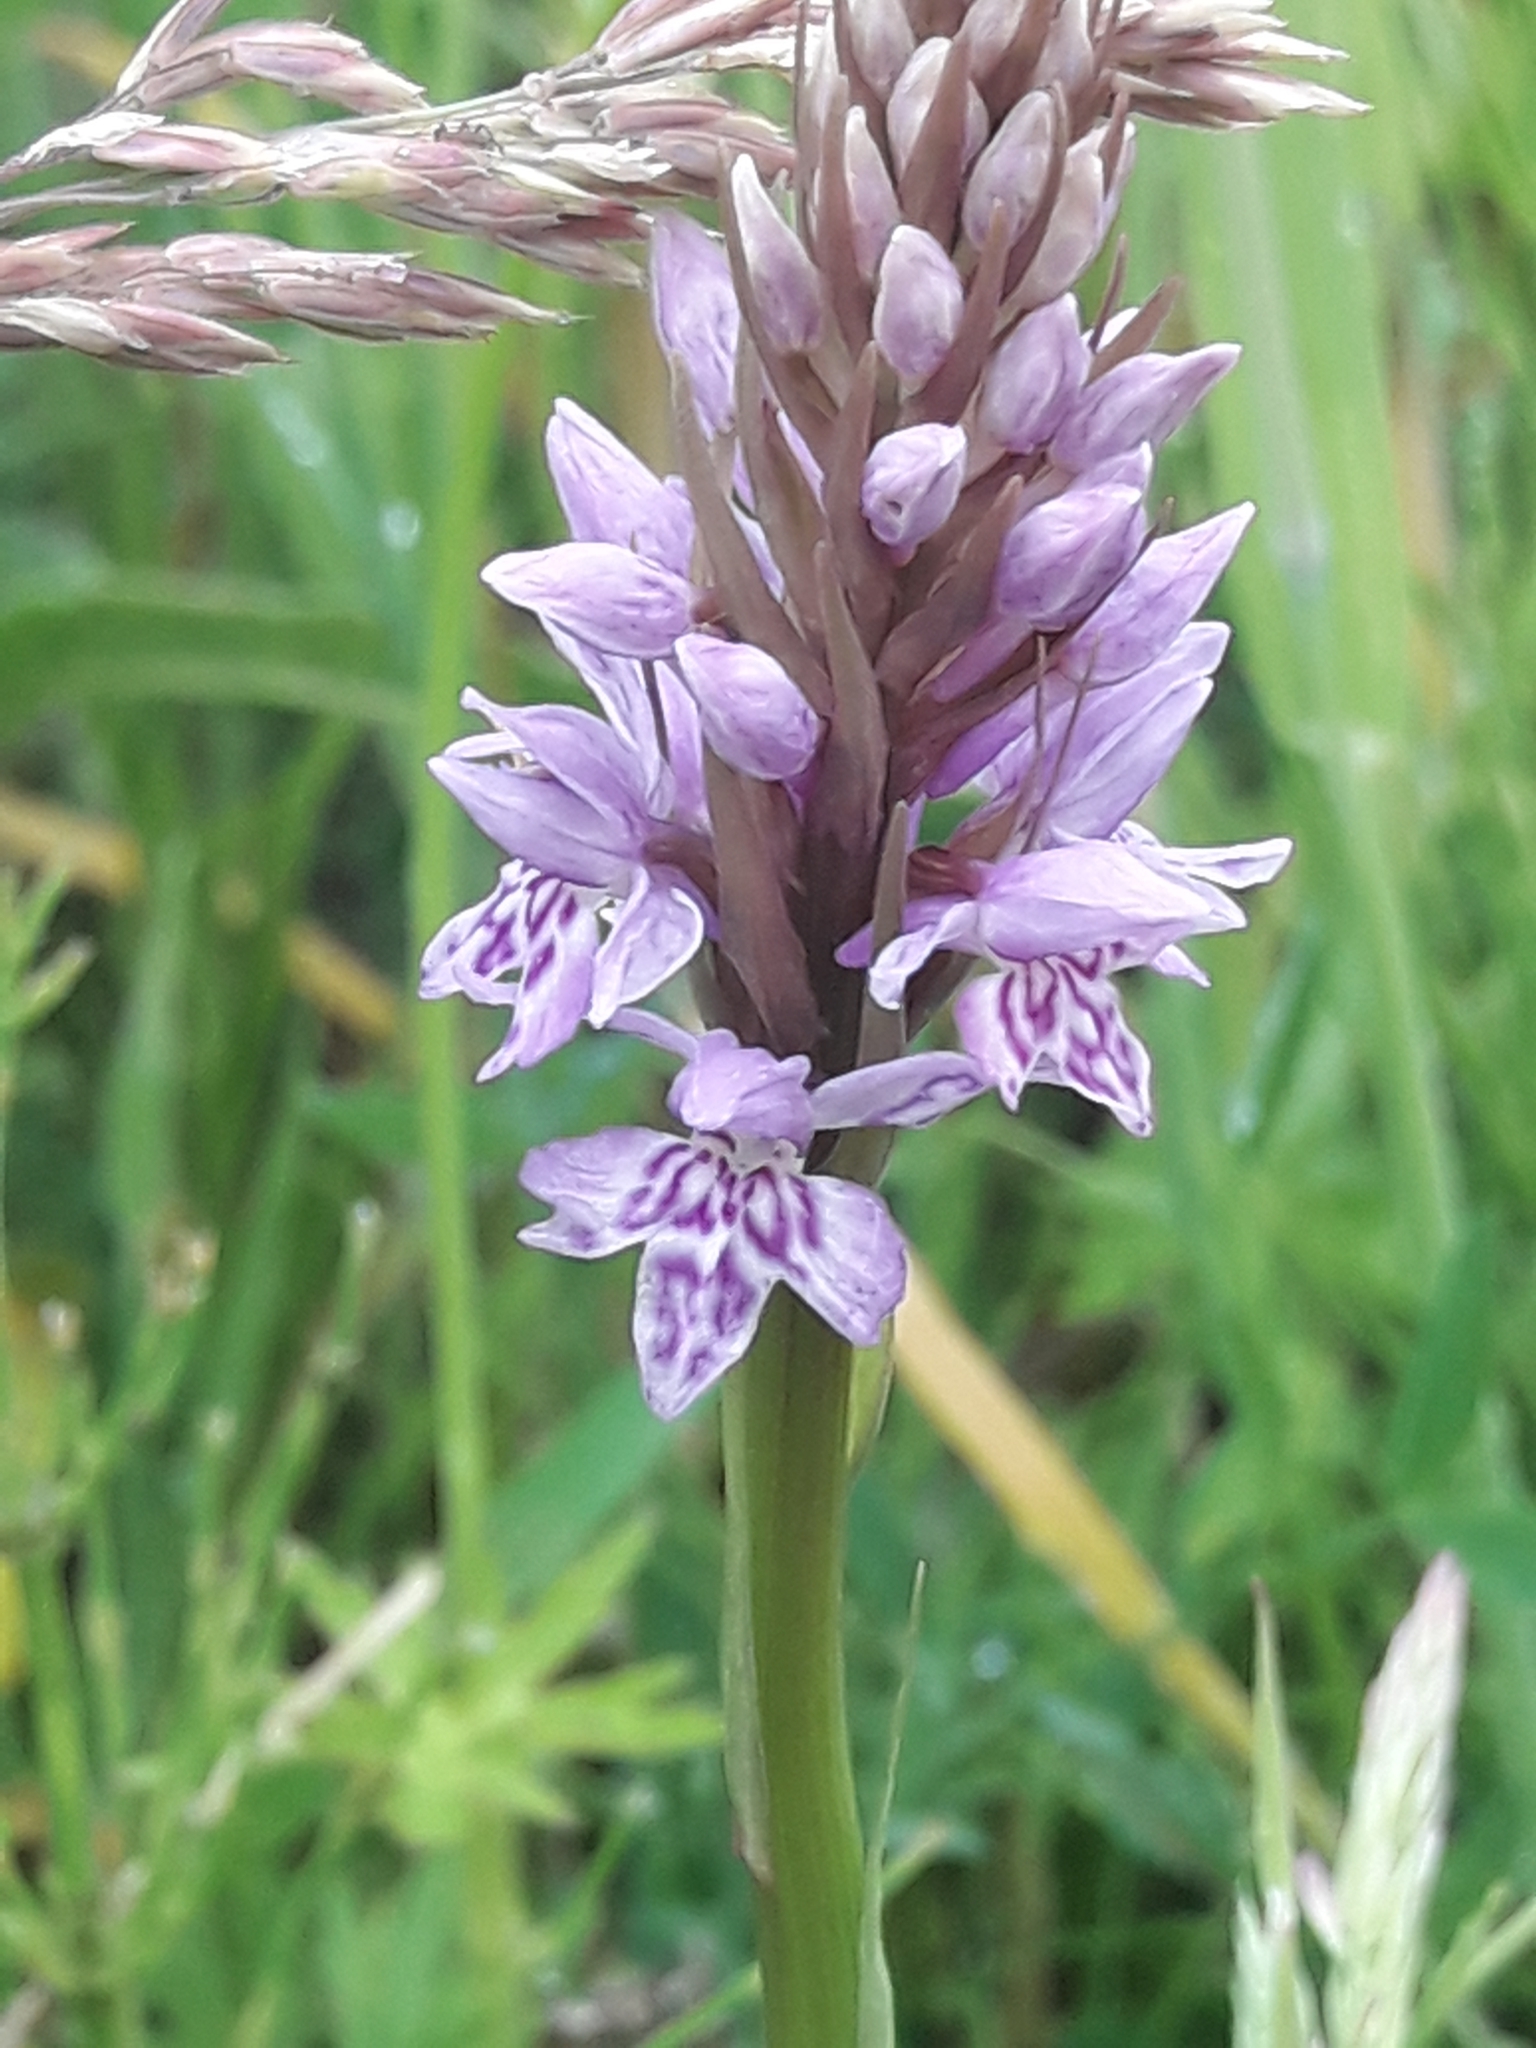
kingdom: Plantae
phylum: Tracheophyta
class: Liliopsida
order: Asparagales
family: Orchidaceae
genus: Dactylorhiza
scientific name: Dactylorhiza maculata
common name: Heath spotted-orchid
